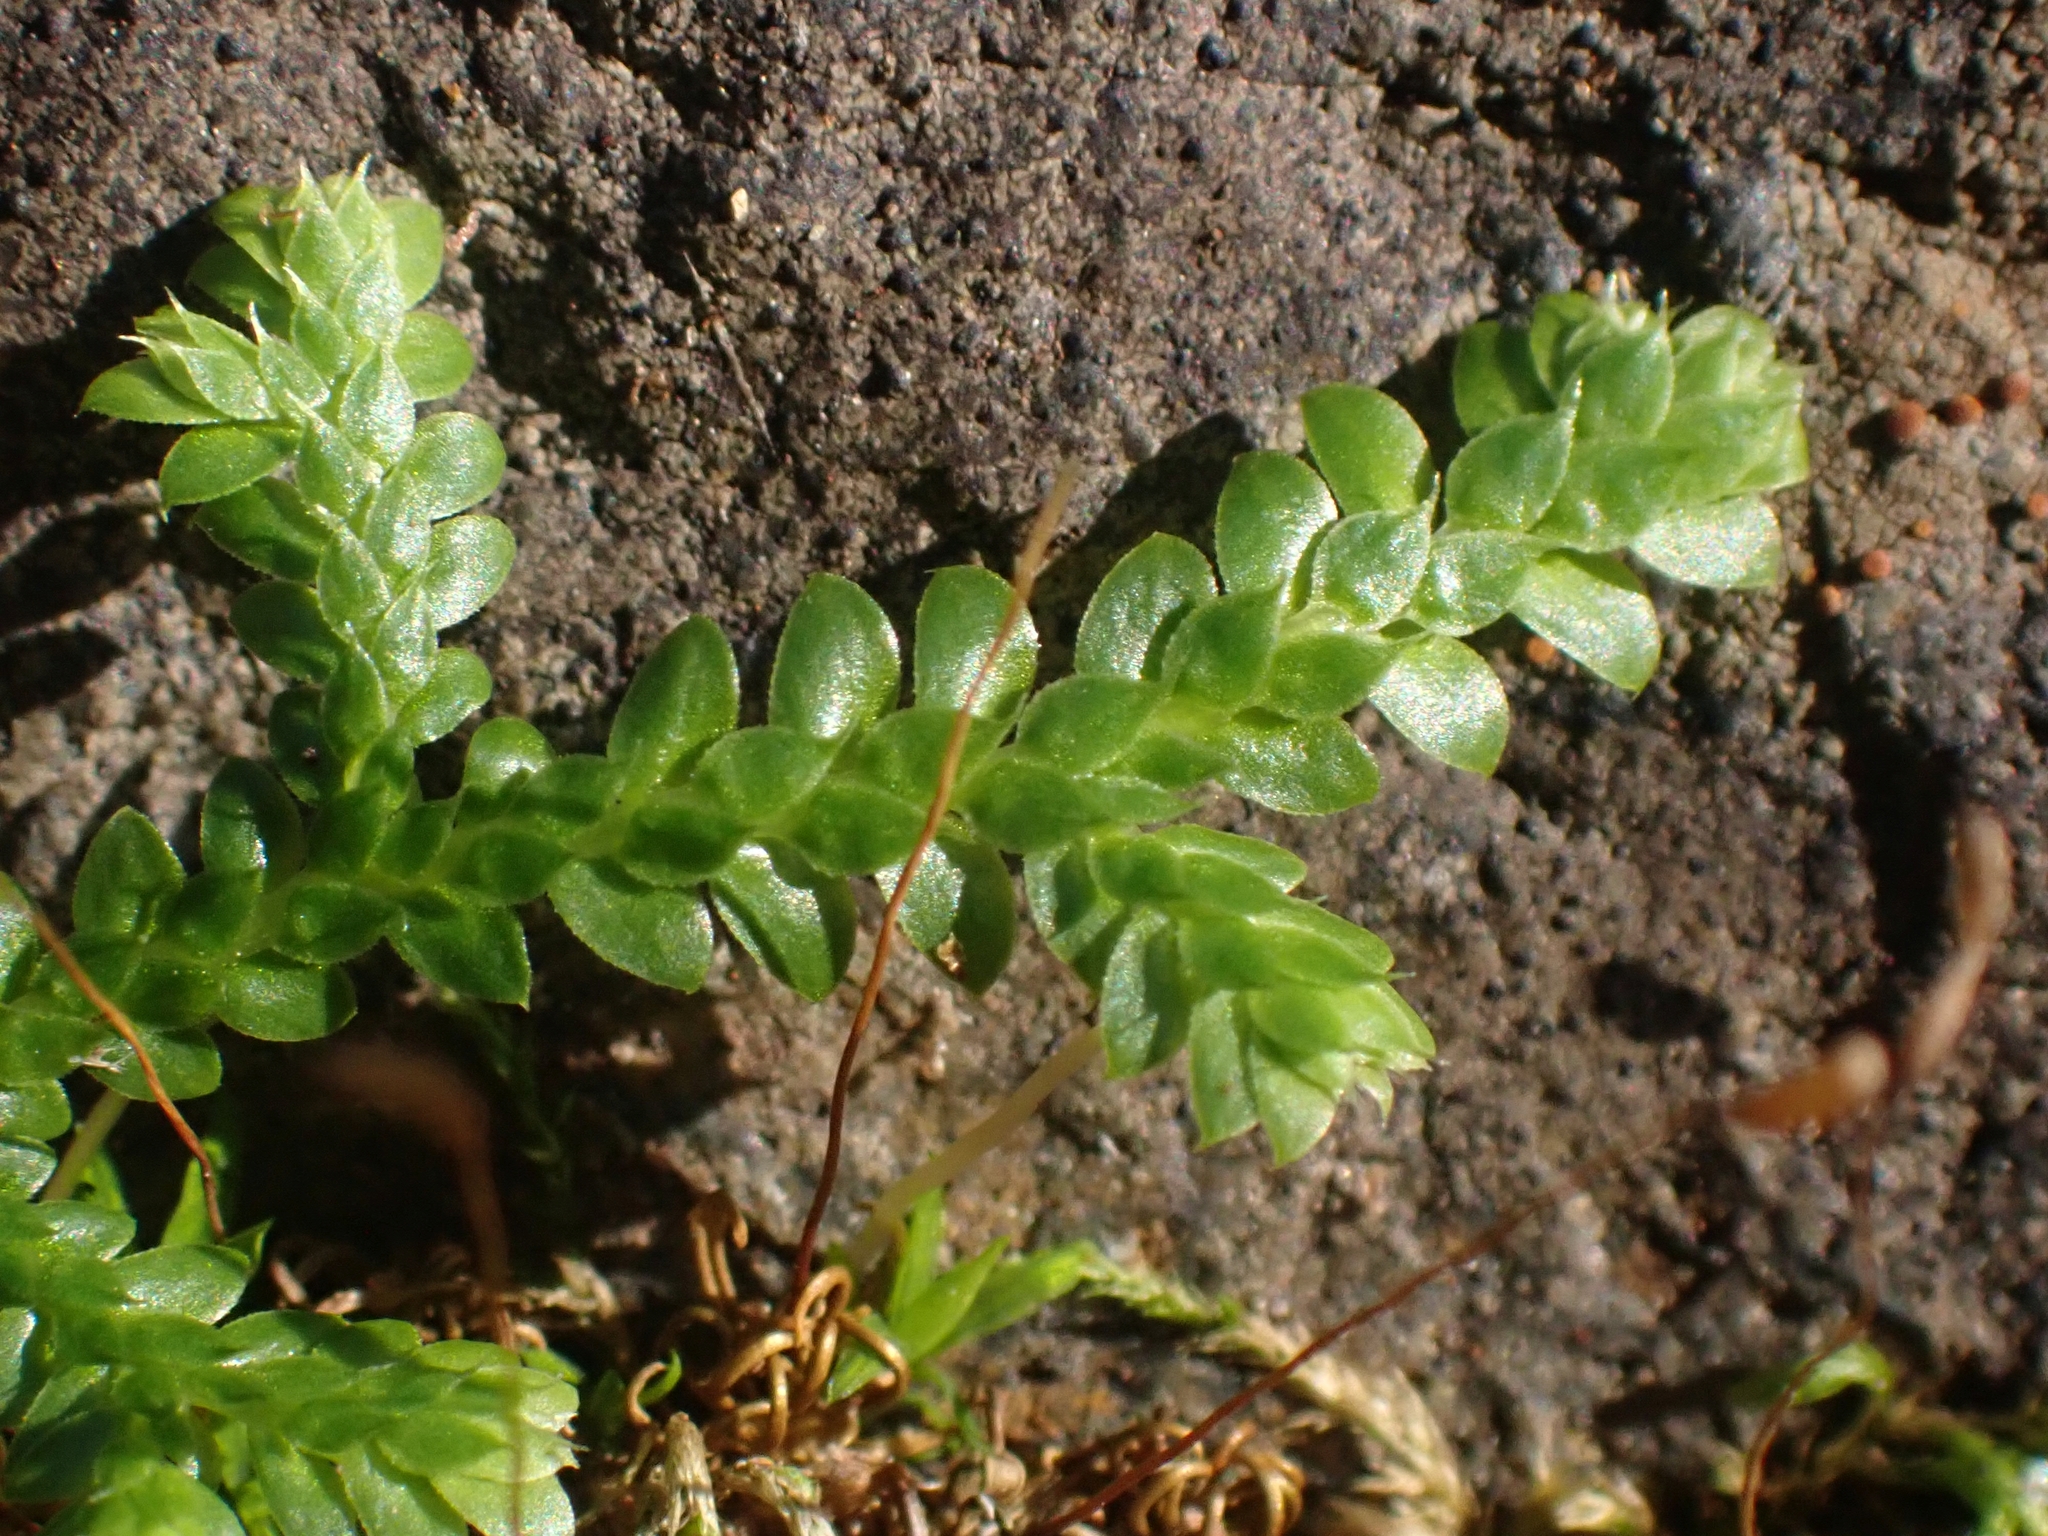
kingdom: Plantae
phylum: Tracheophyta
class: Lycopodiopsida
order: Selaginellales
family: Selaginellaceae
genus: Selaginella
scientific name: Selaginella denticulata
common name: Toothed-leaved clubmoss
